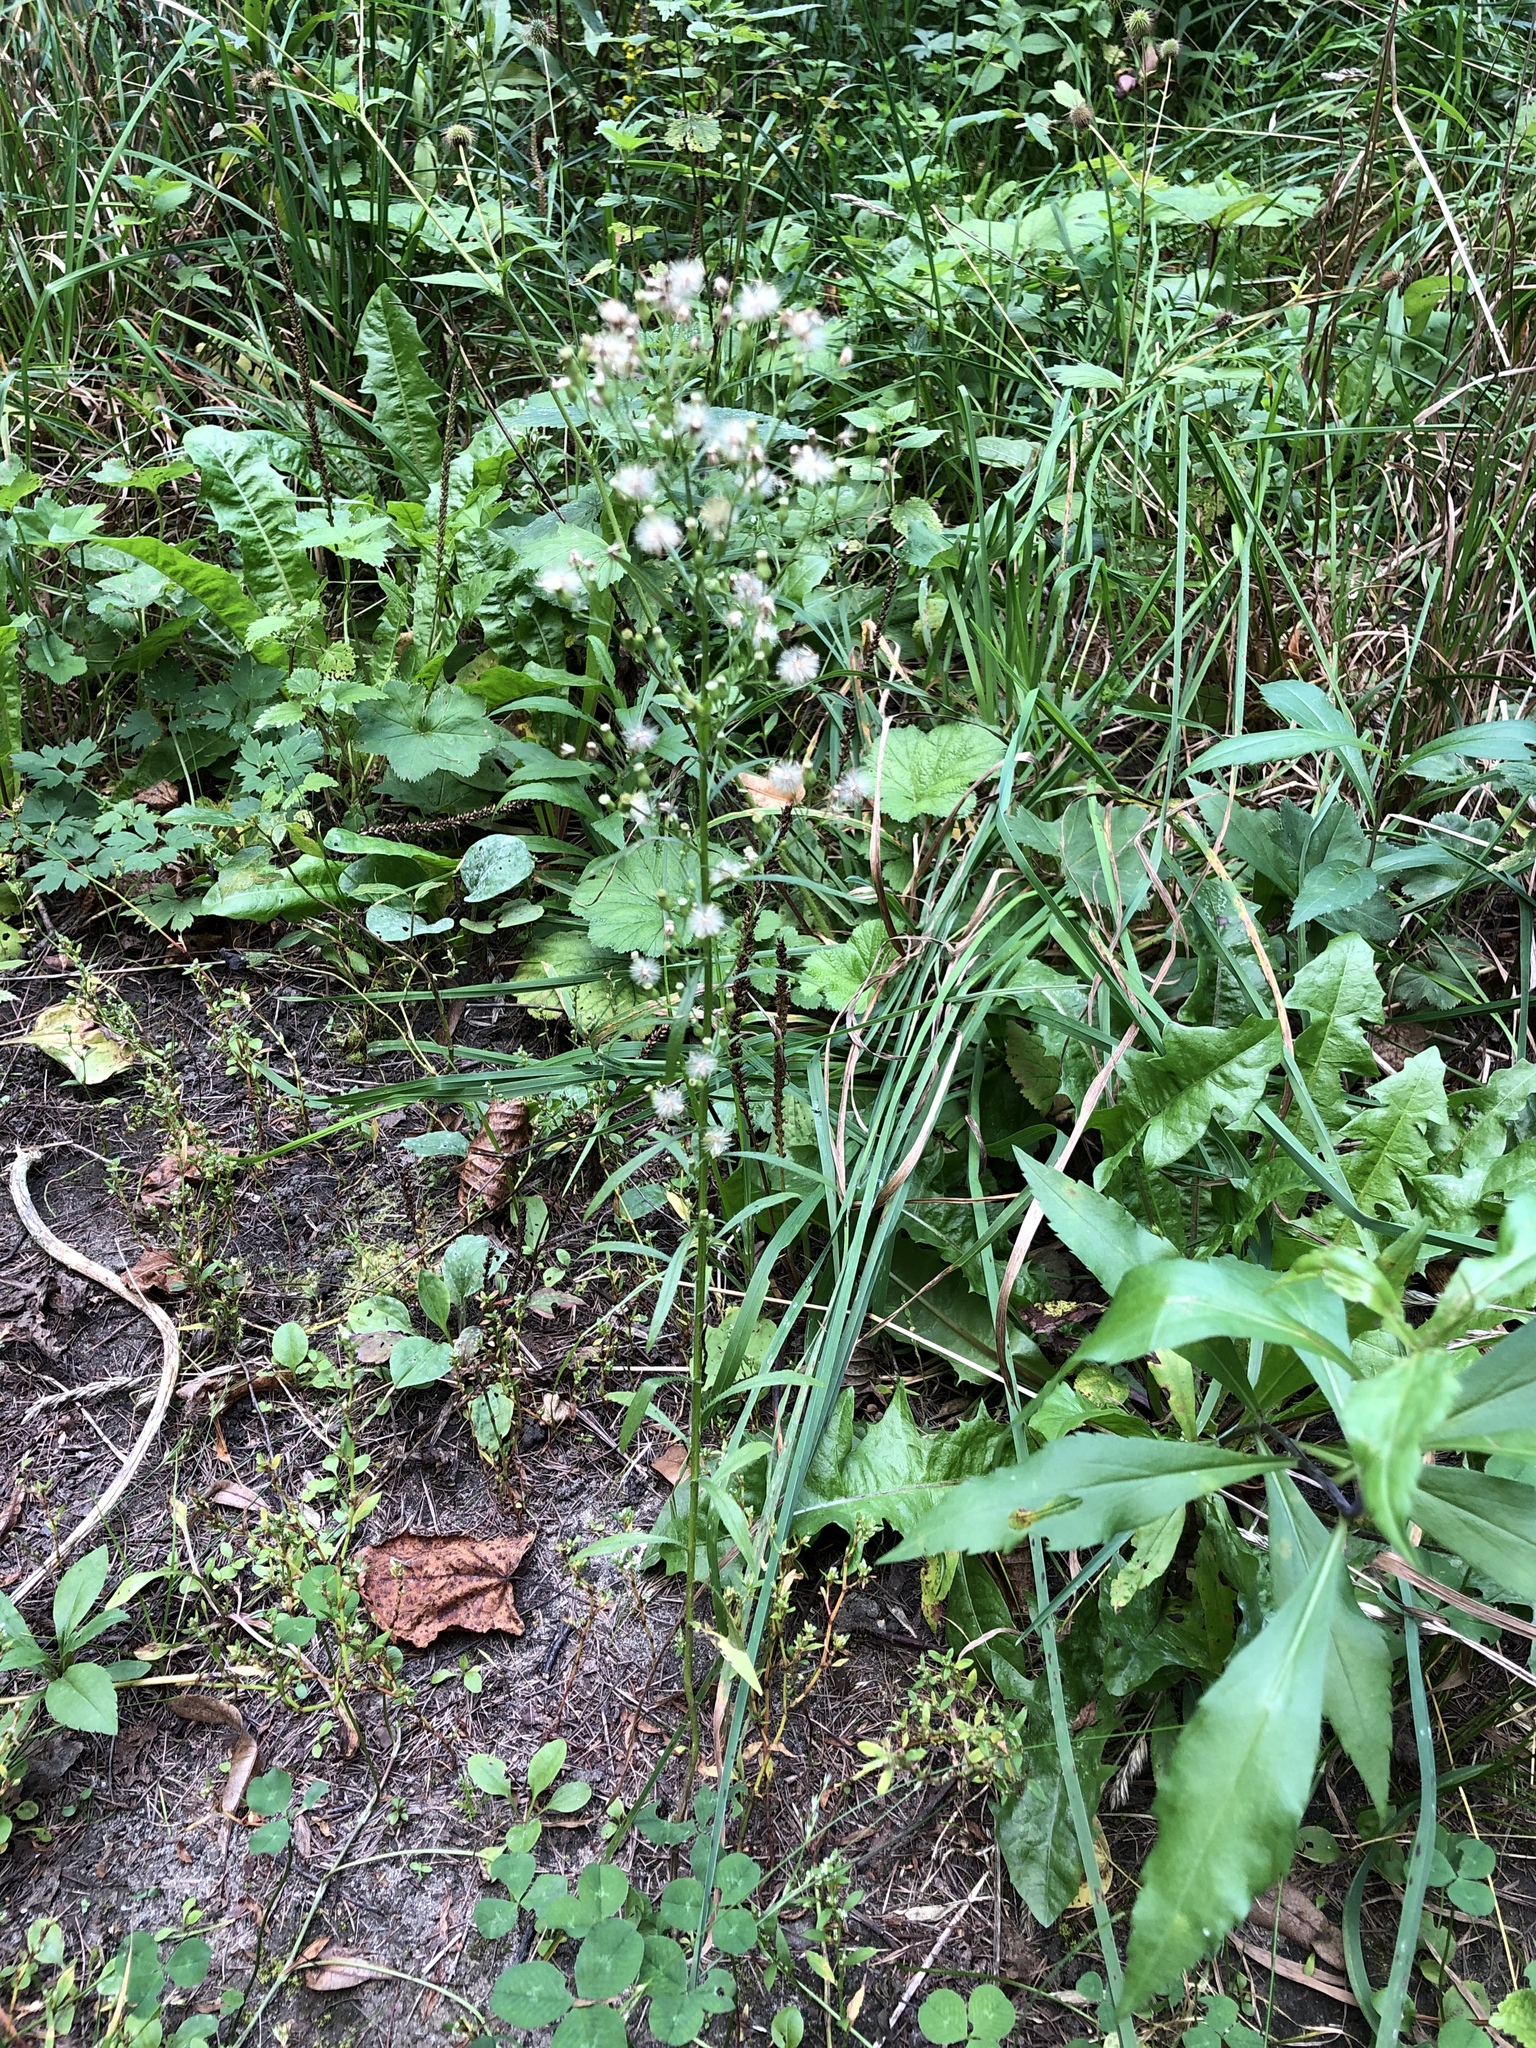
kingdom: Plantae
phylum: Tracheophyta
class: Magnoliopsida
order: Asterales
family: Asteraceae
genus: Erigeron
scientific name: Erigeron canadensis
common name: Canadian fleabane
